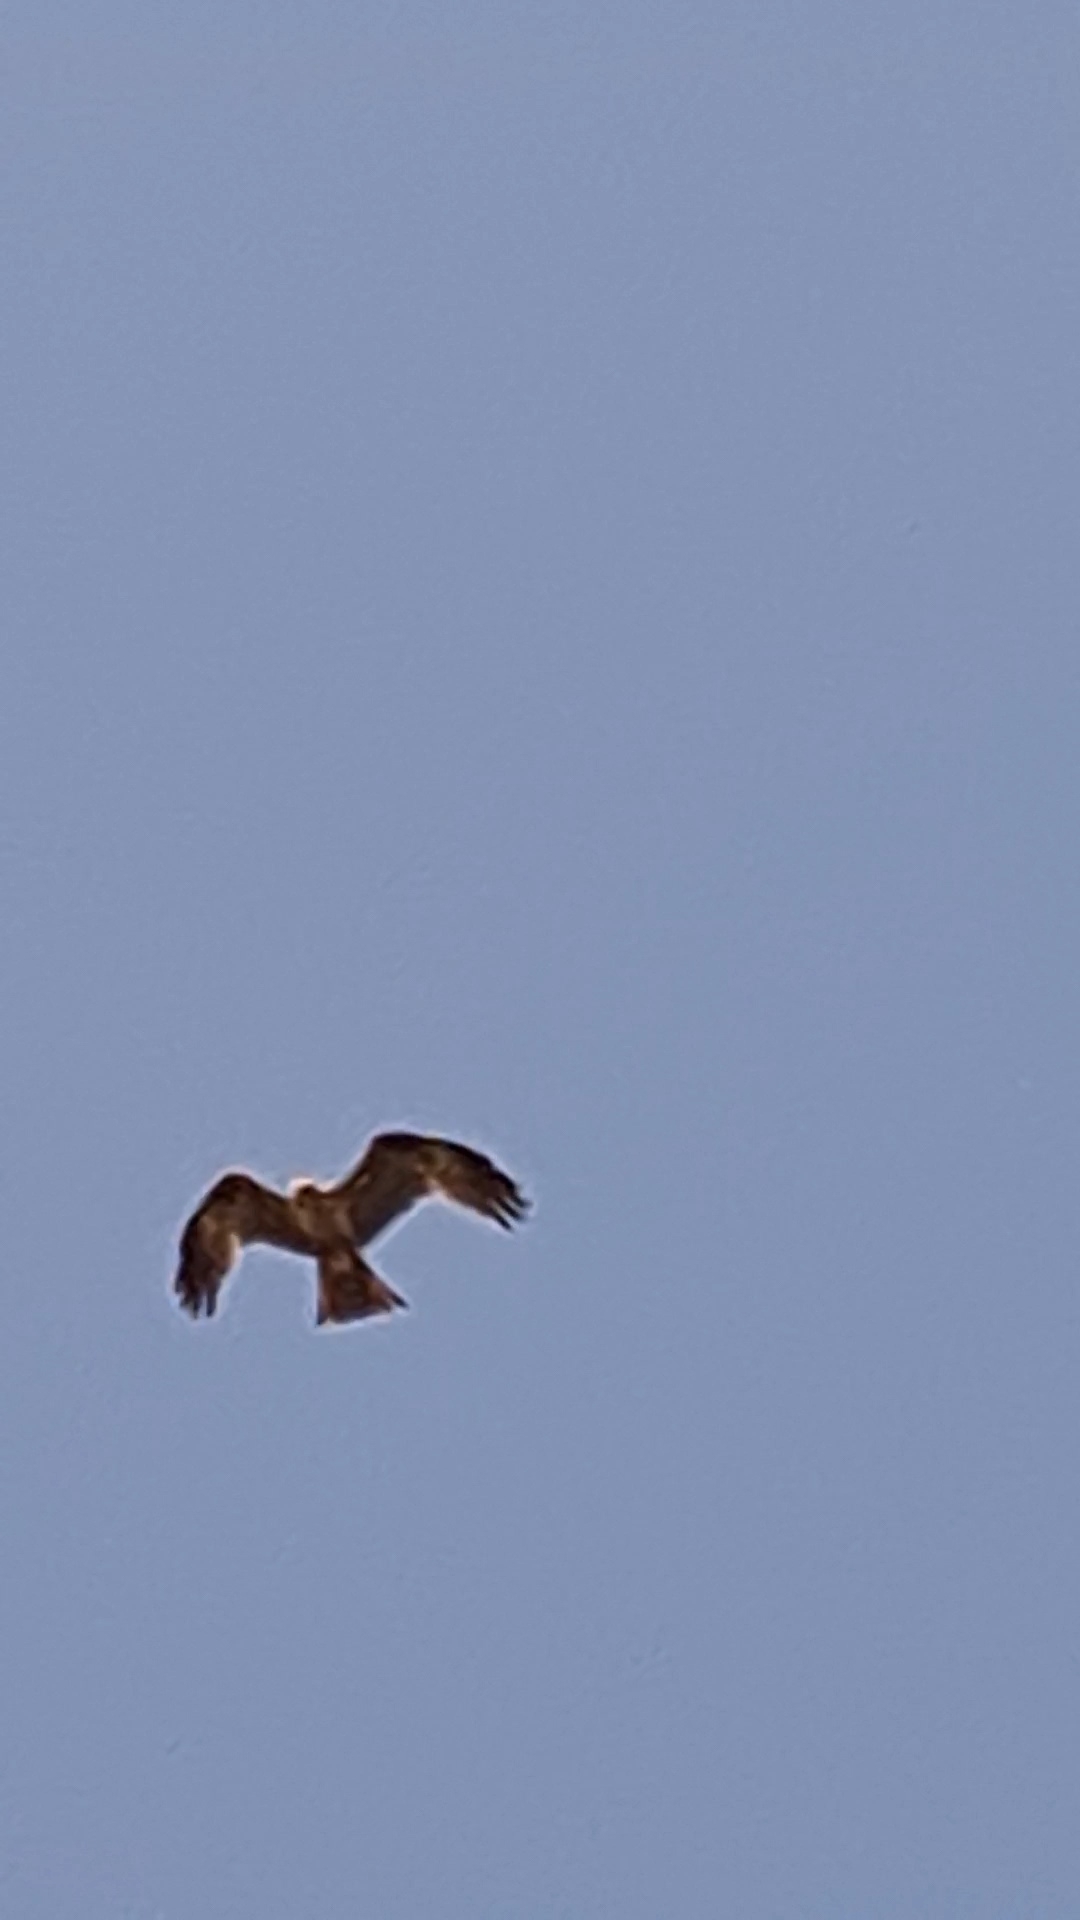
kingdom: Animalia
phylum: Chordata
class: Aves
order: Accipitriformes
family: Accipitridae
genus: Milvus
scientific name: Milvus migrans
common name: Black kite
